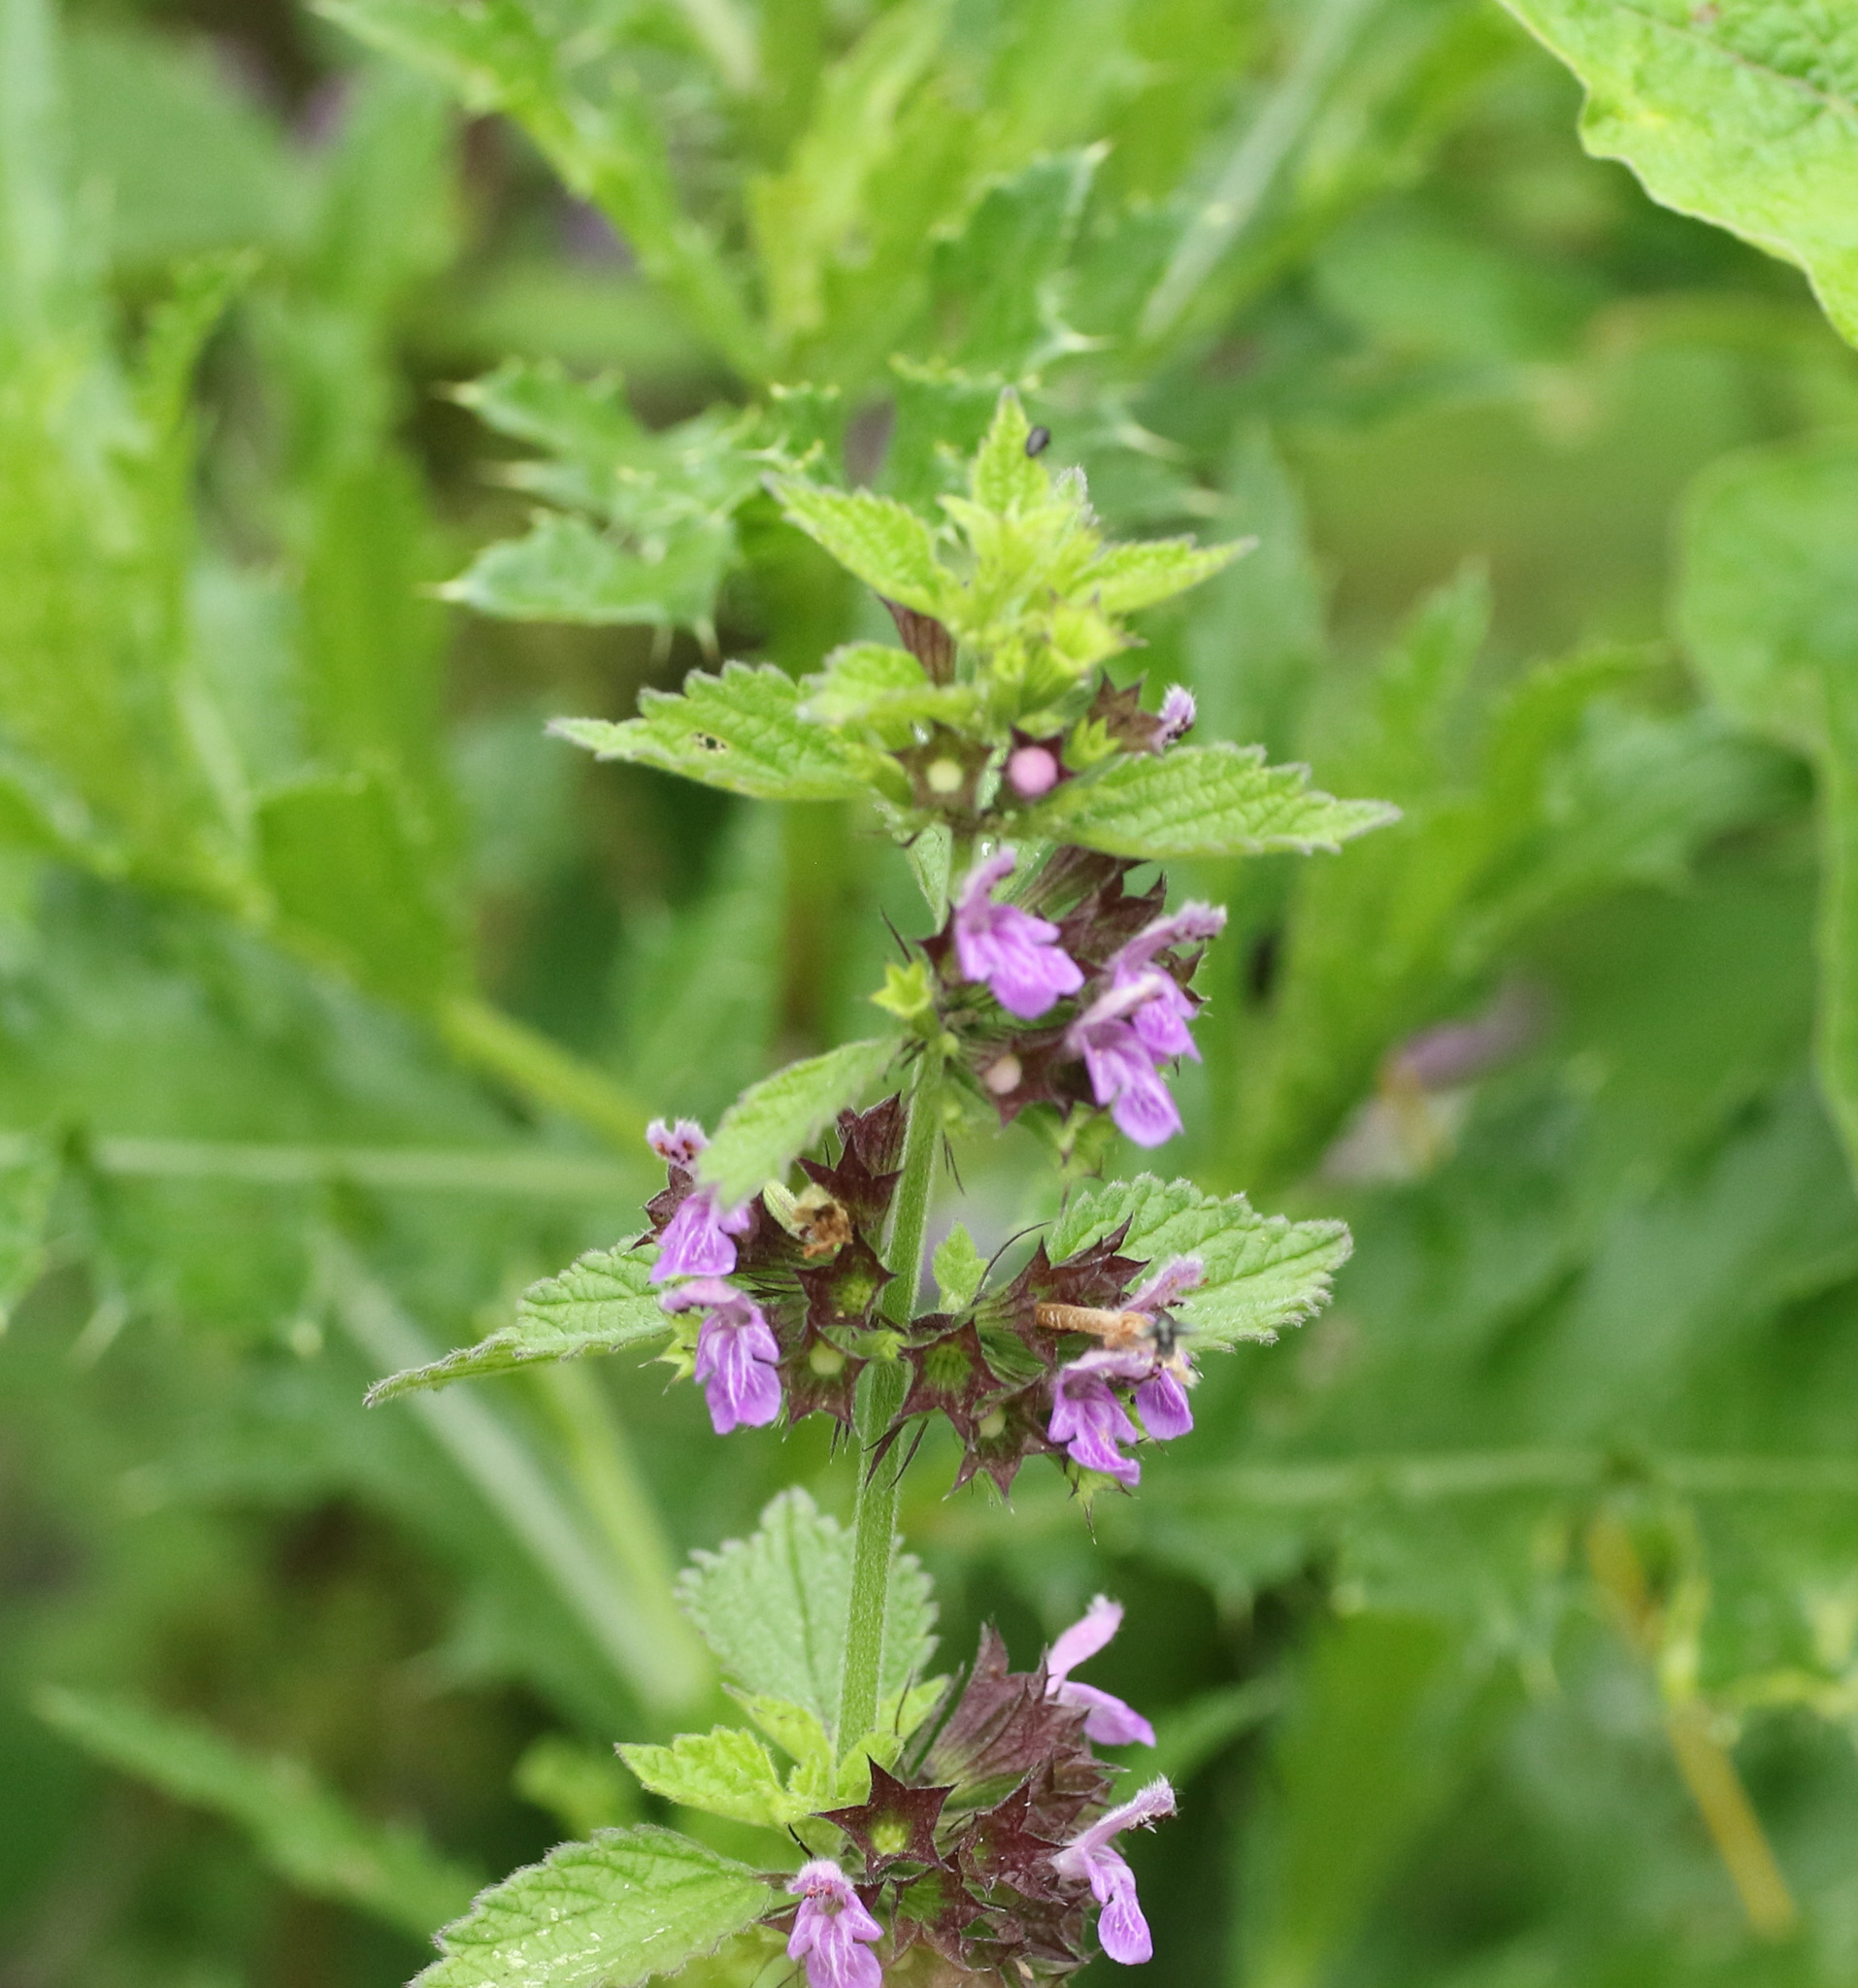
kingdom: Plantae
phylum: Tracheophyta
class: Magnoliopsida
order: Lamiales
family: Lamiaceae
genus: Ballota
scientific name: Ballota nigra
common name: Black horehound
